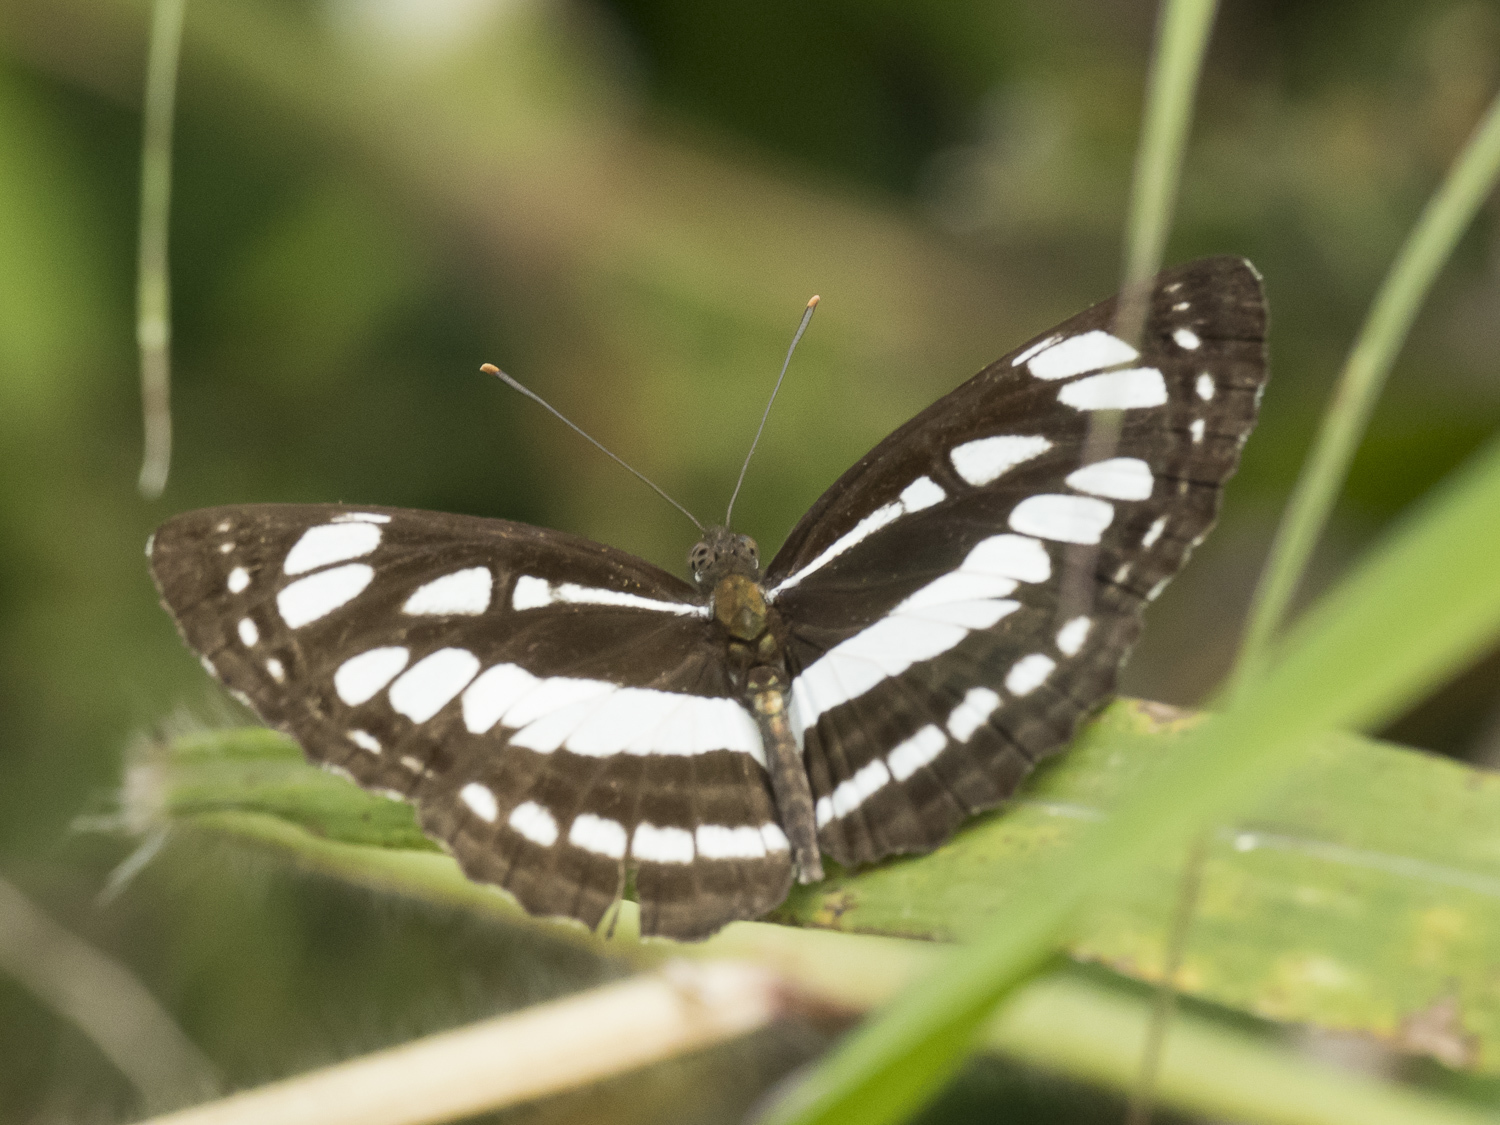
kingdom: Animalia
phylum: Arthropoda
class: Insecta
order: Lepidoptera
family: Nymphalidae
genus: Neptis
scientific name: Neptis hylas
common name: Common sailer
